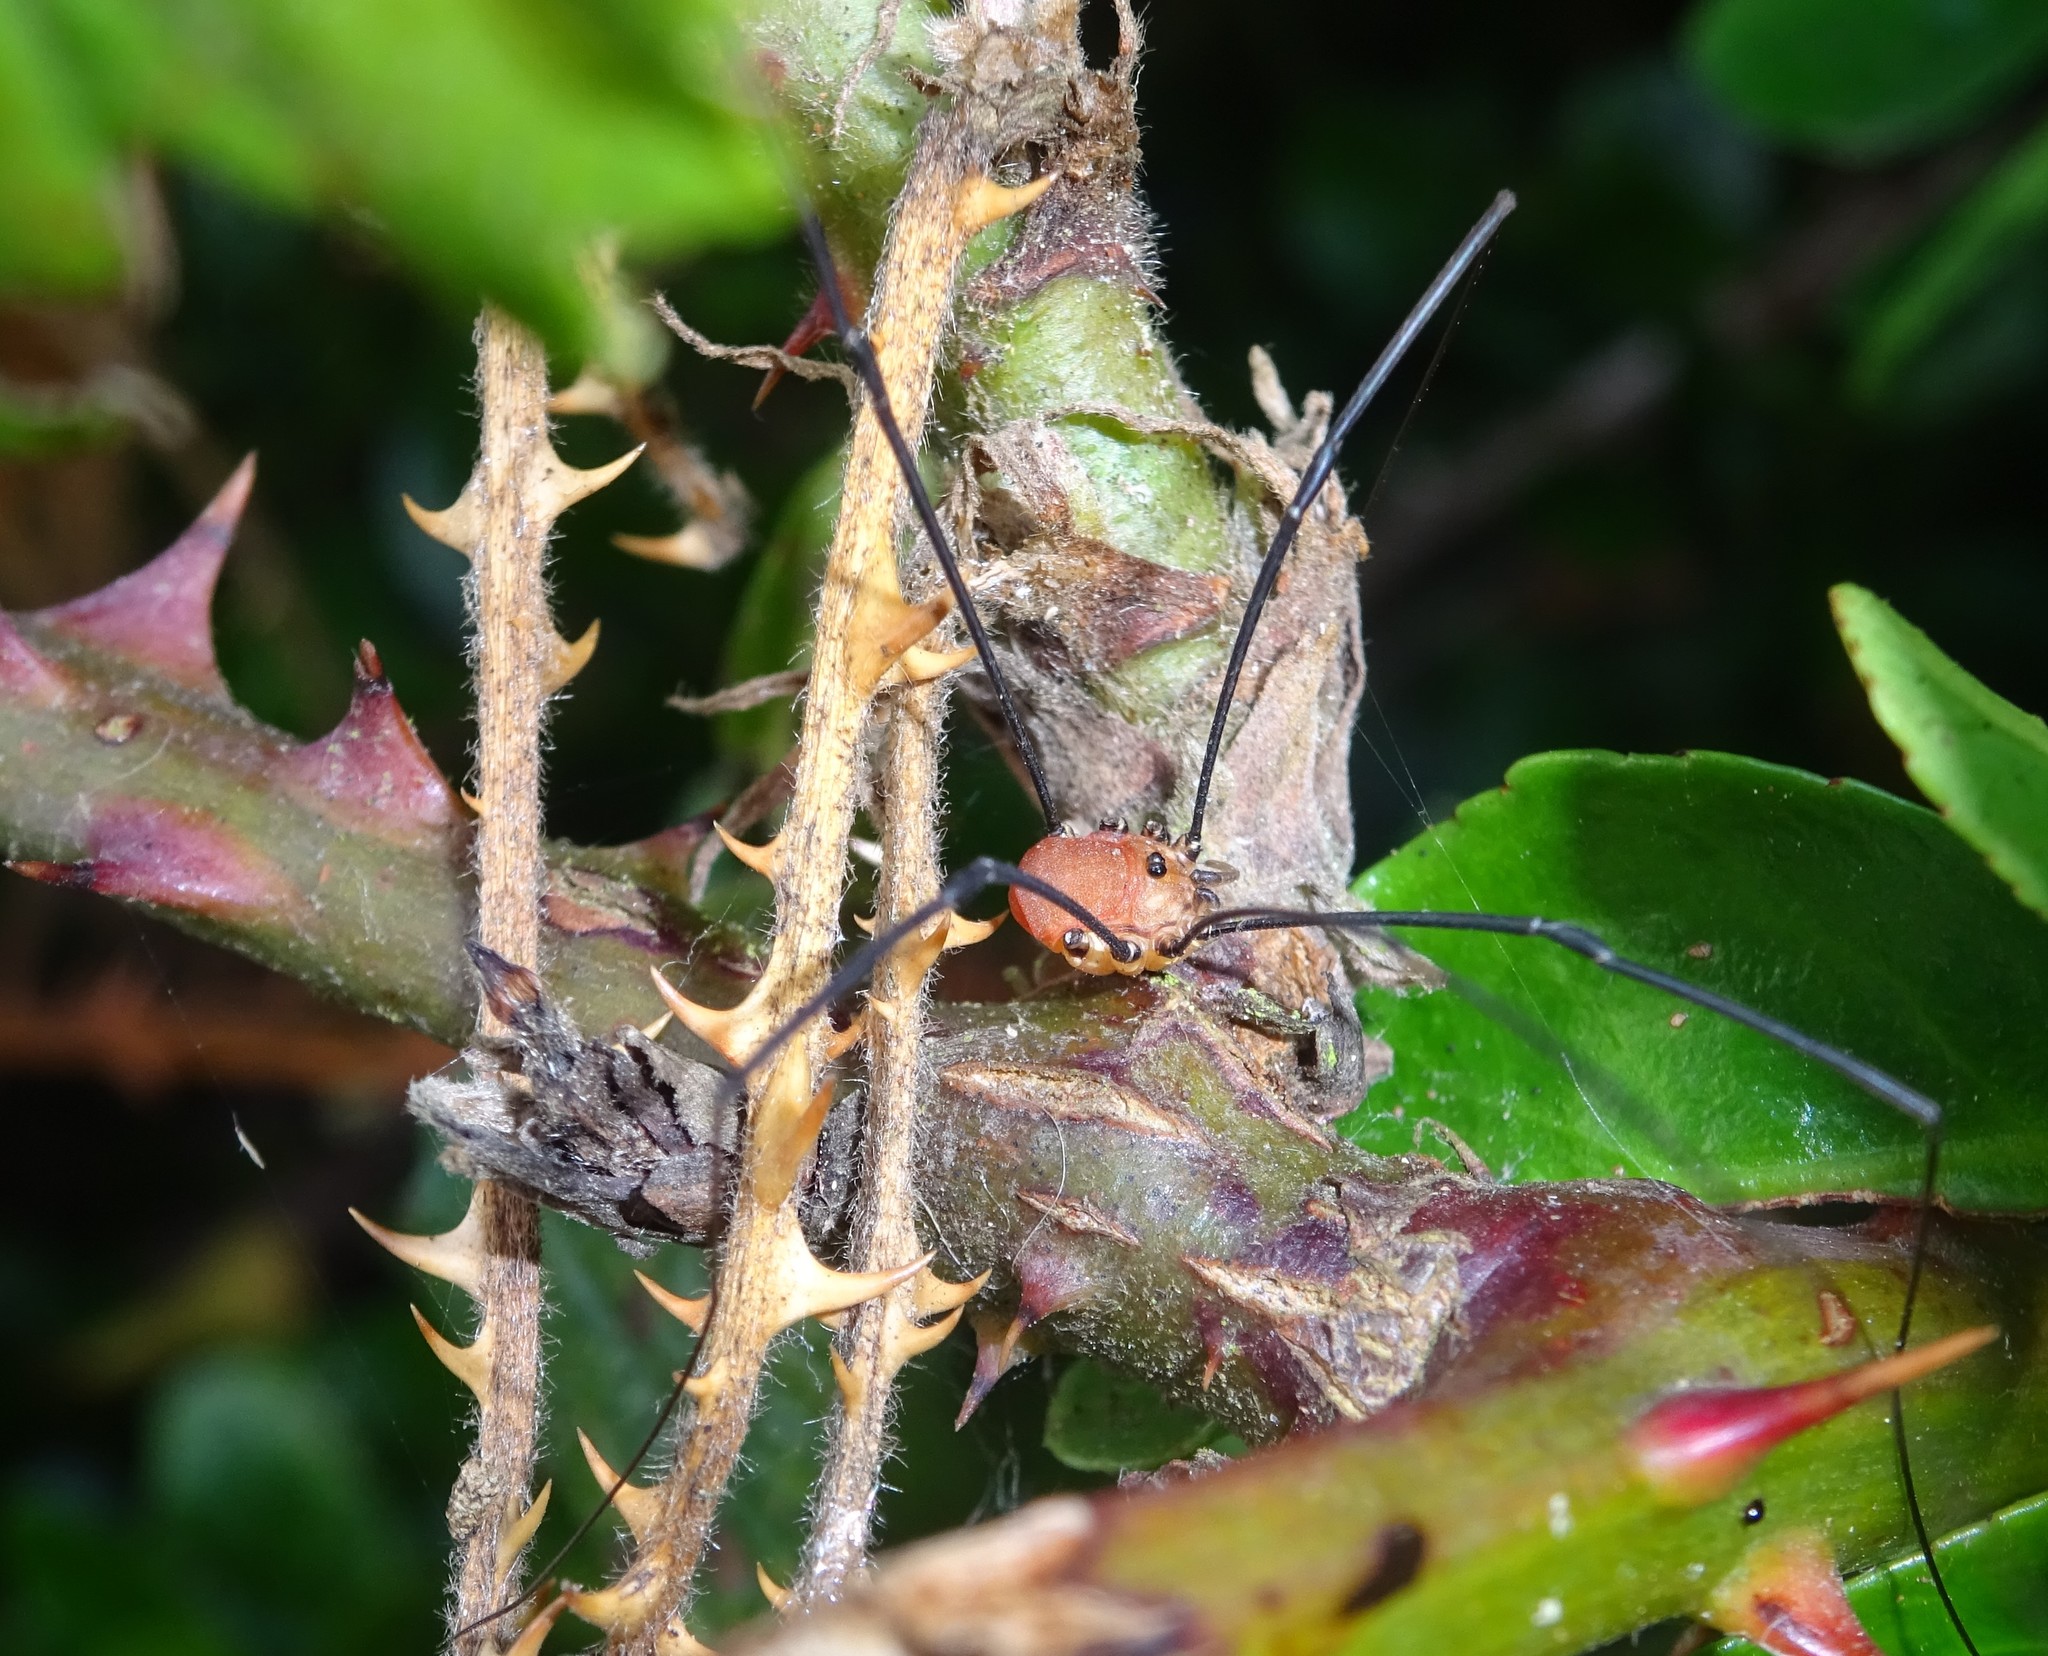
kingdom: Animalia
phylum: Arthropoda
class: Arachnida
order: Opiliones
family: Sclerosomatidae
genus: Leiobunum
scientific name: Leiobunum rotundum
